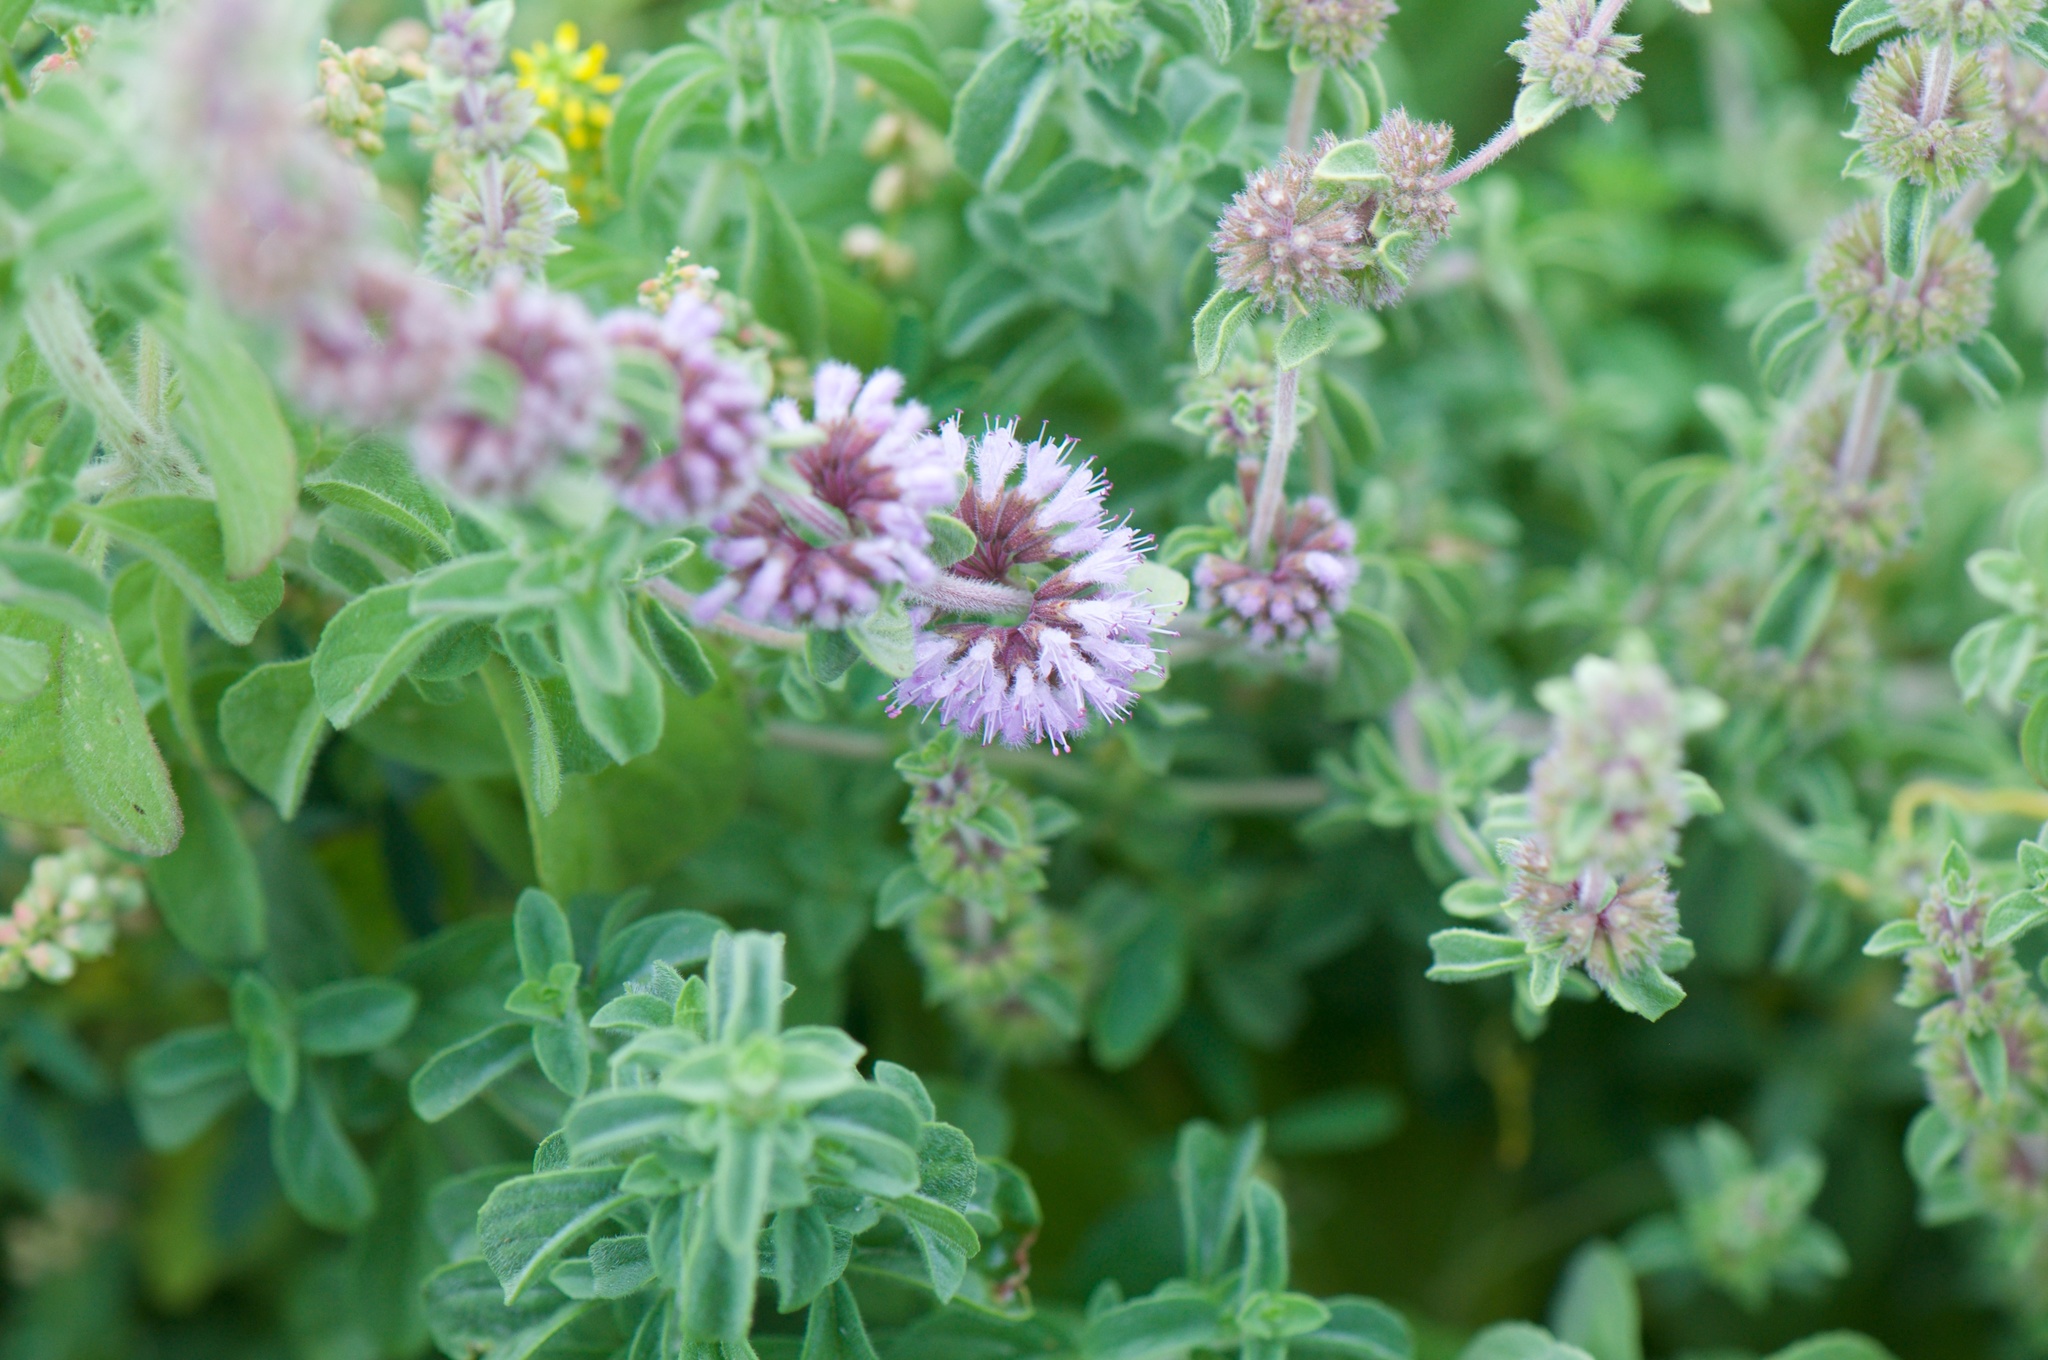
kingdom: Plantae
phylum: Tracheophyta
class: Magnoliopsida
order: Lamiales
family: Lamiaceae
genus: Mentha
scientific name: Mentha pulegium
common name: Pennyroyal
